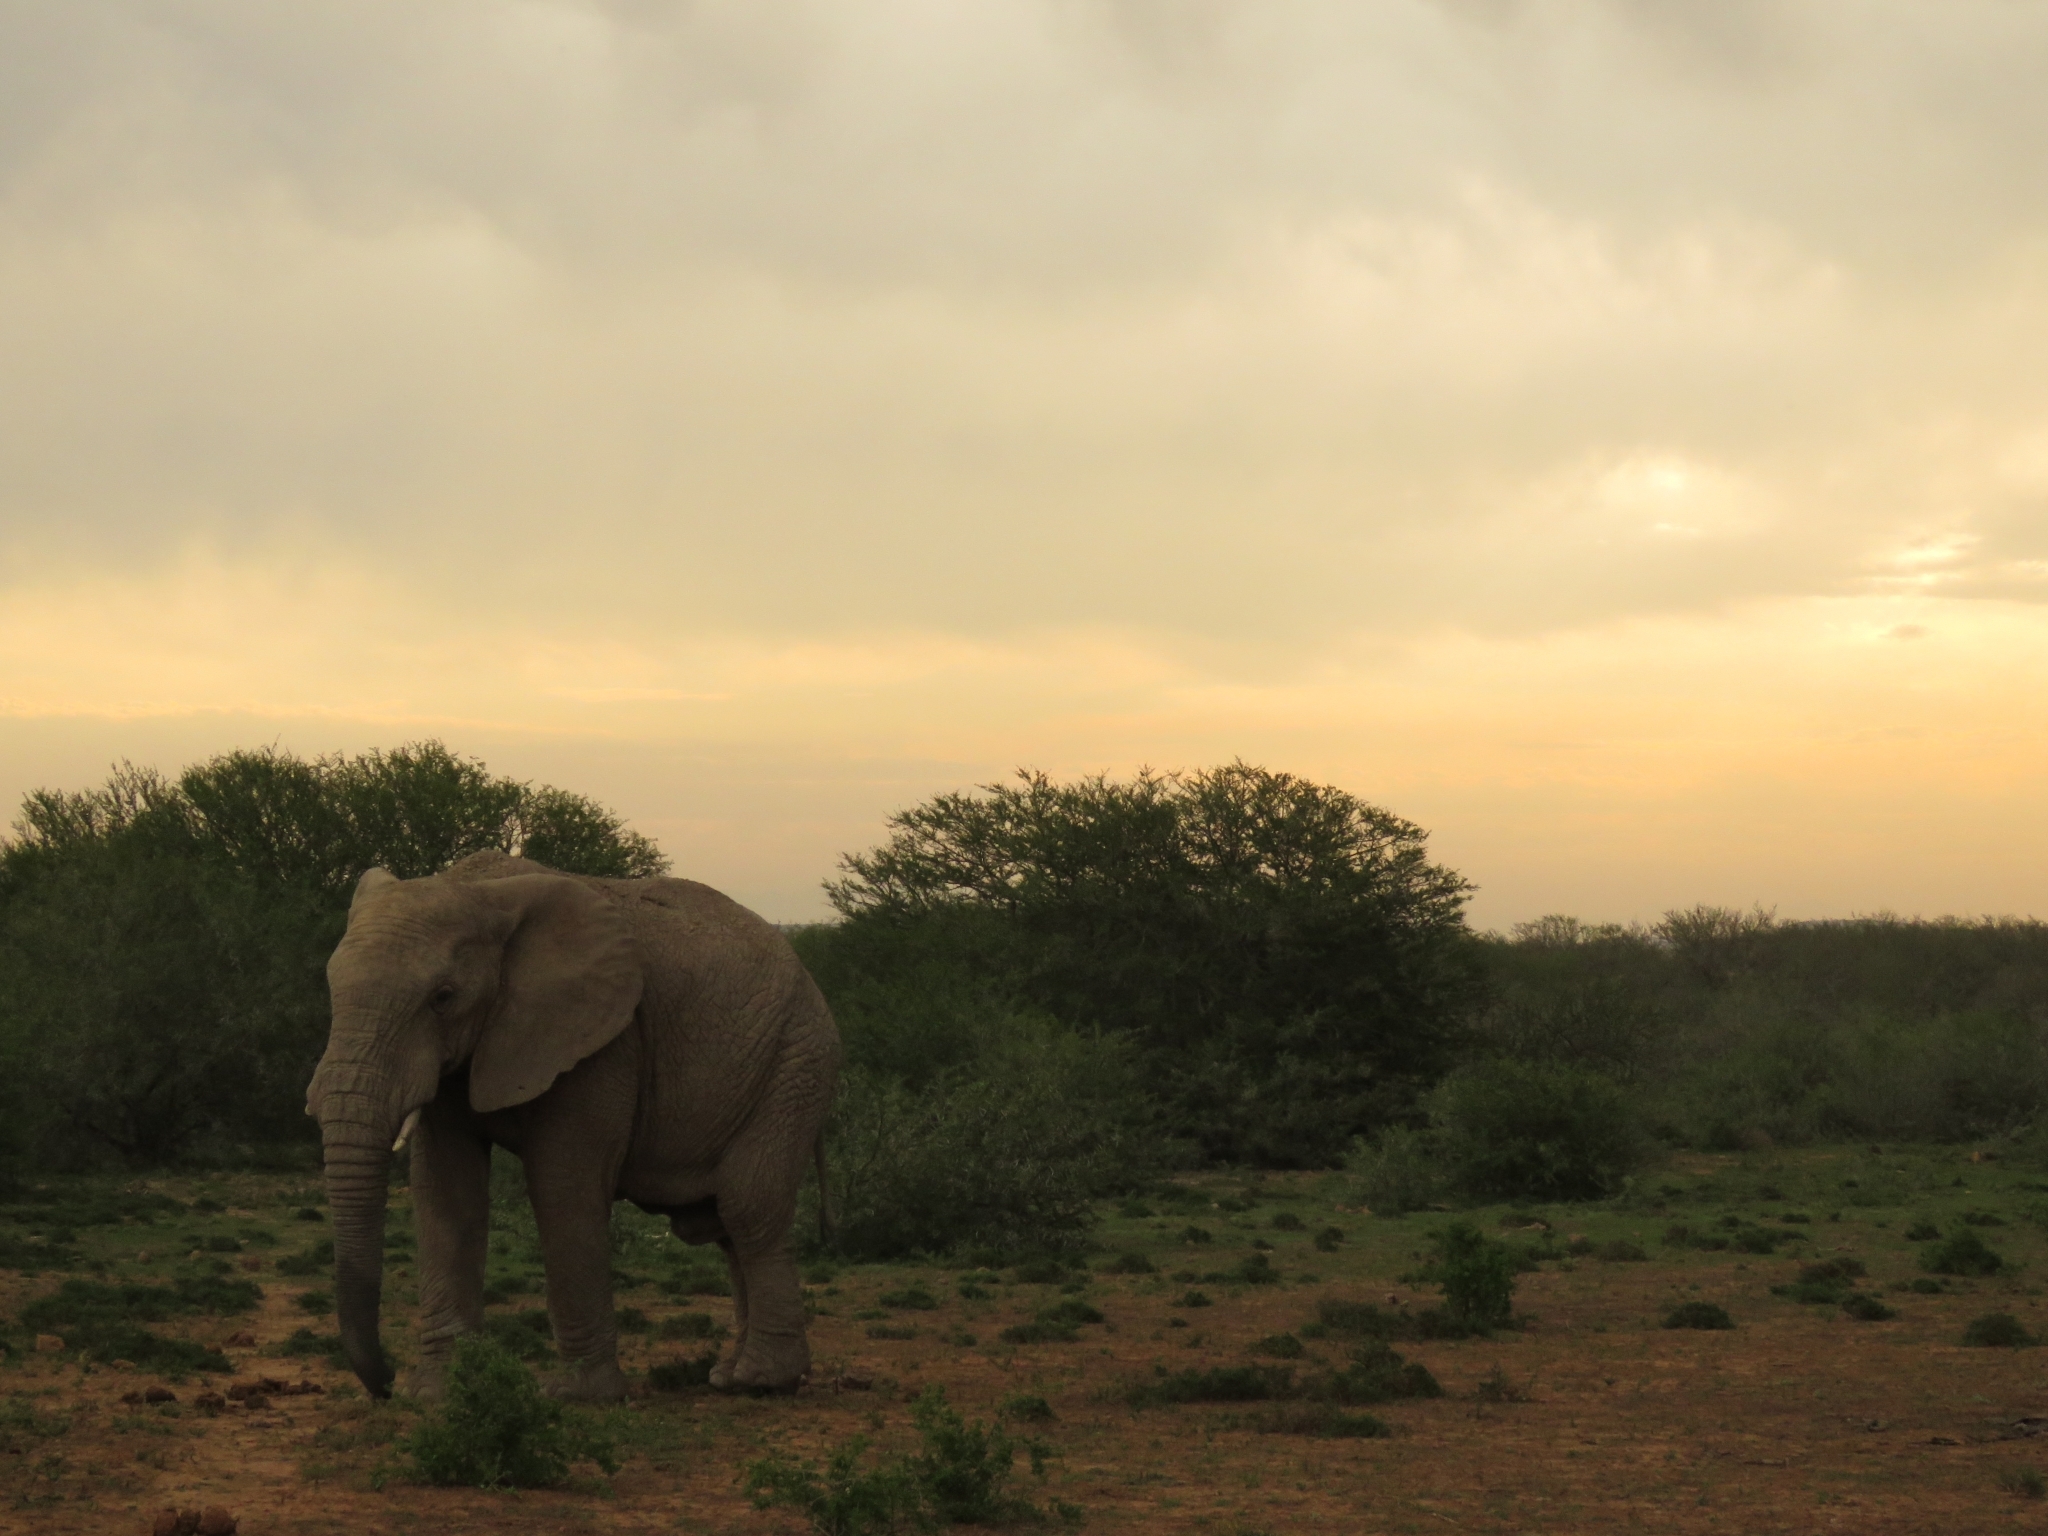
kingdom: Animalia
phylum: Chordata
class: Mammalia
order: Proboscidea
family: Elephantidae
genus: Loxodonta
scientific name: Loxodonta africana
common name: African elephant
